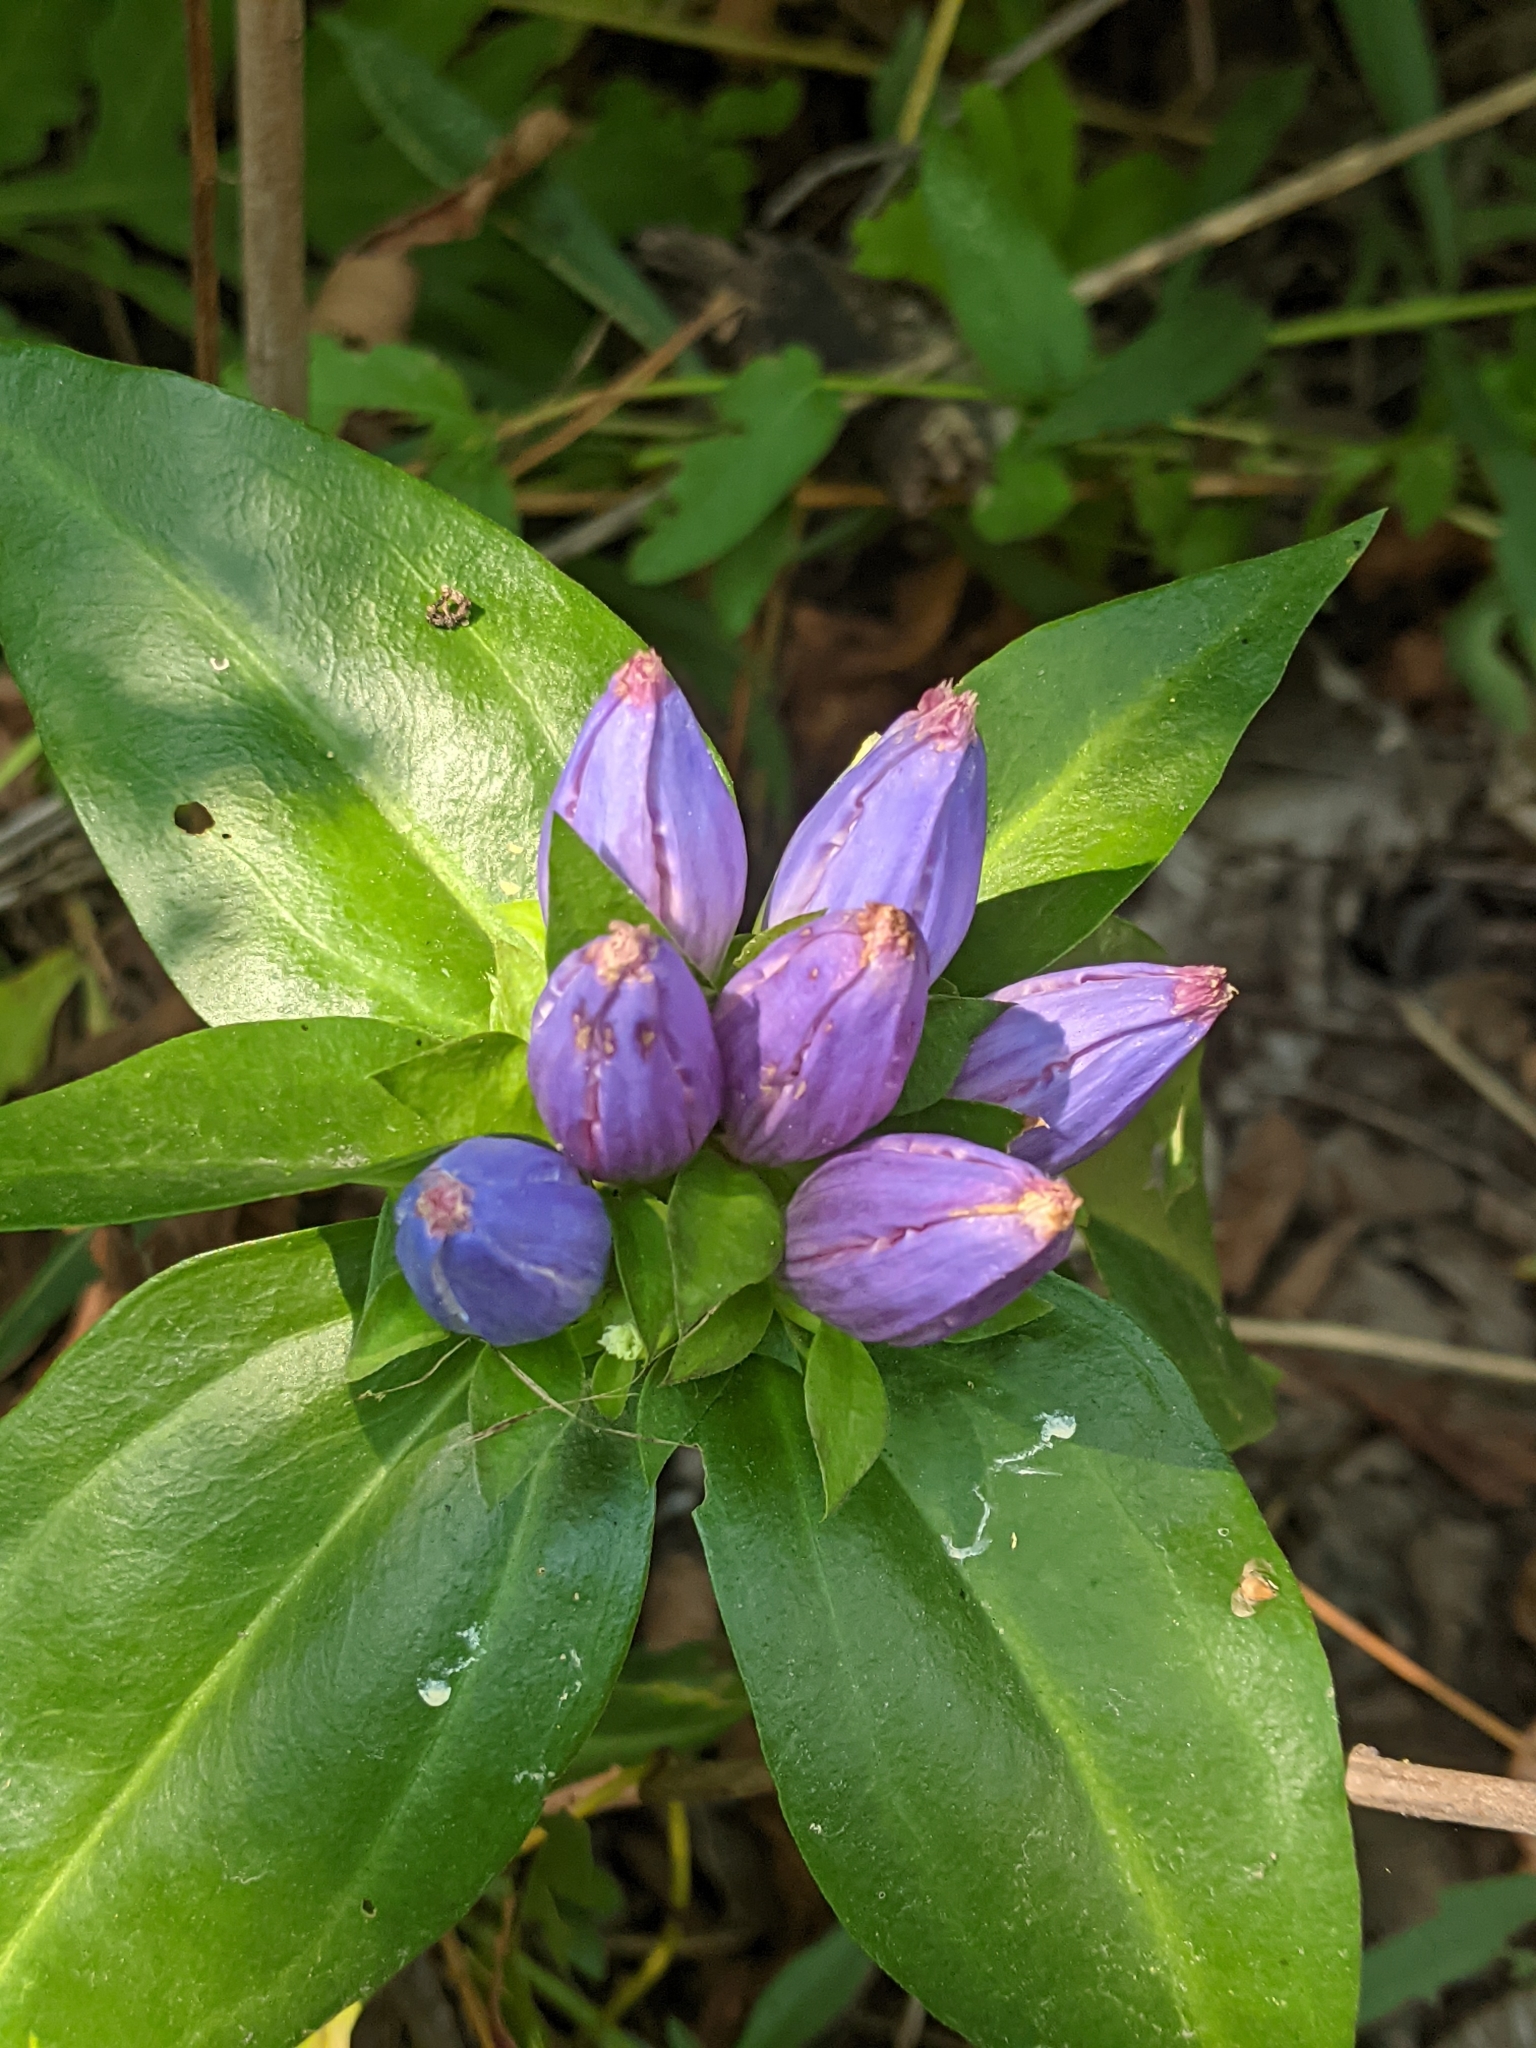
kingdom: Plantae
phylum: Tracheophyta
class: Magnoliopsida
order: Gentianales
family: Gentianaceae
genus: Gentiana
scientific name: Gentiana andrewsii
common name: Bottle gentian
